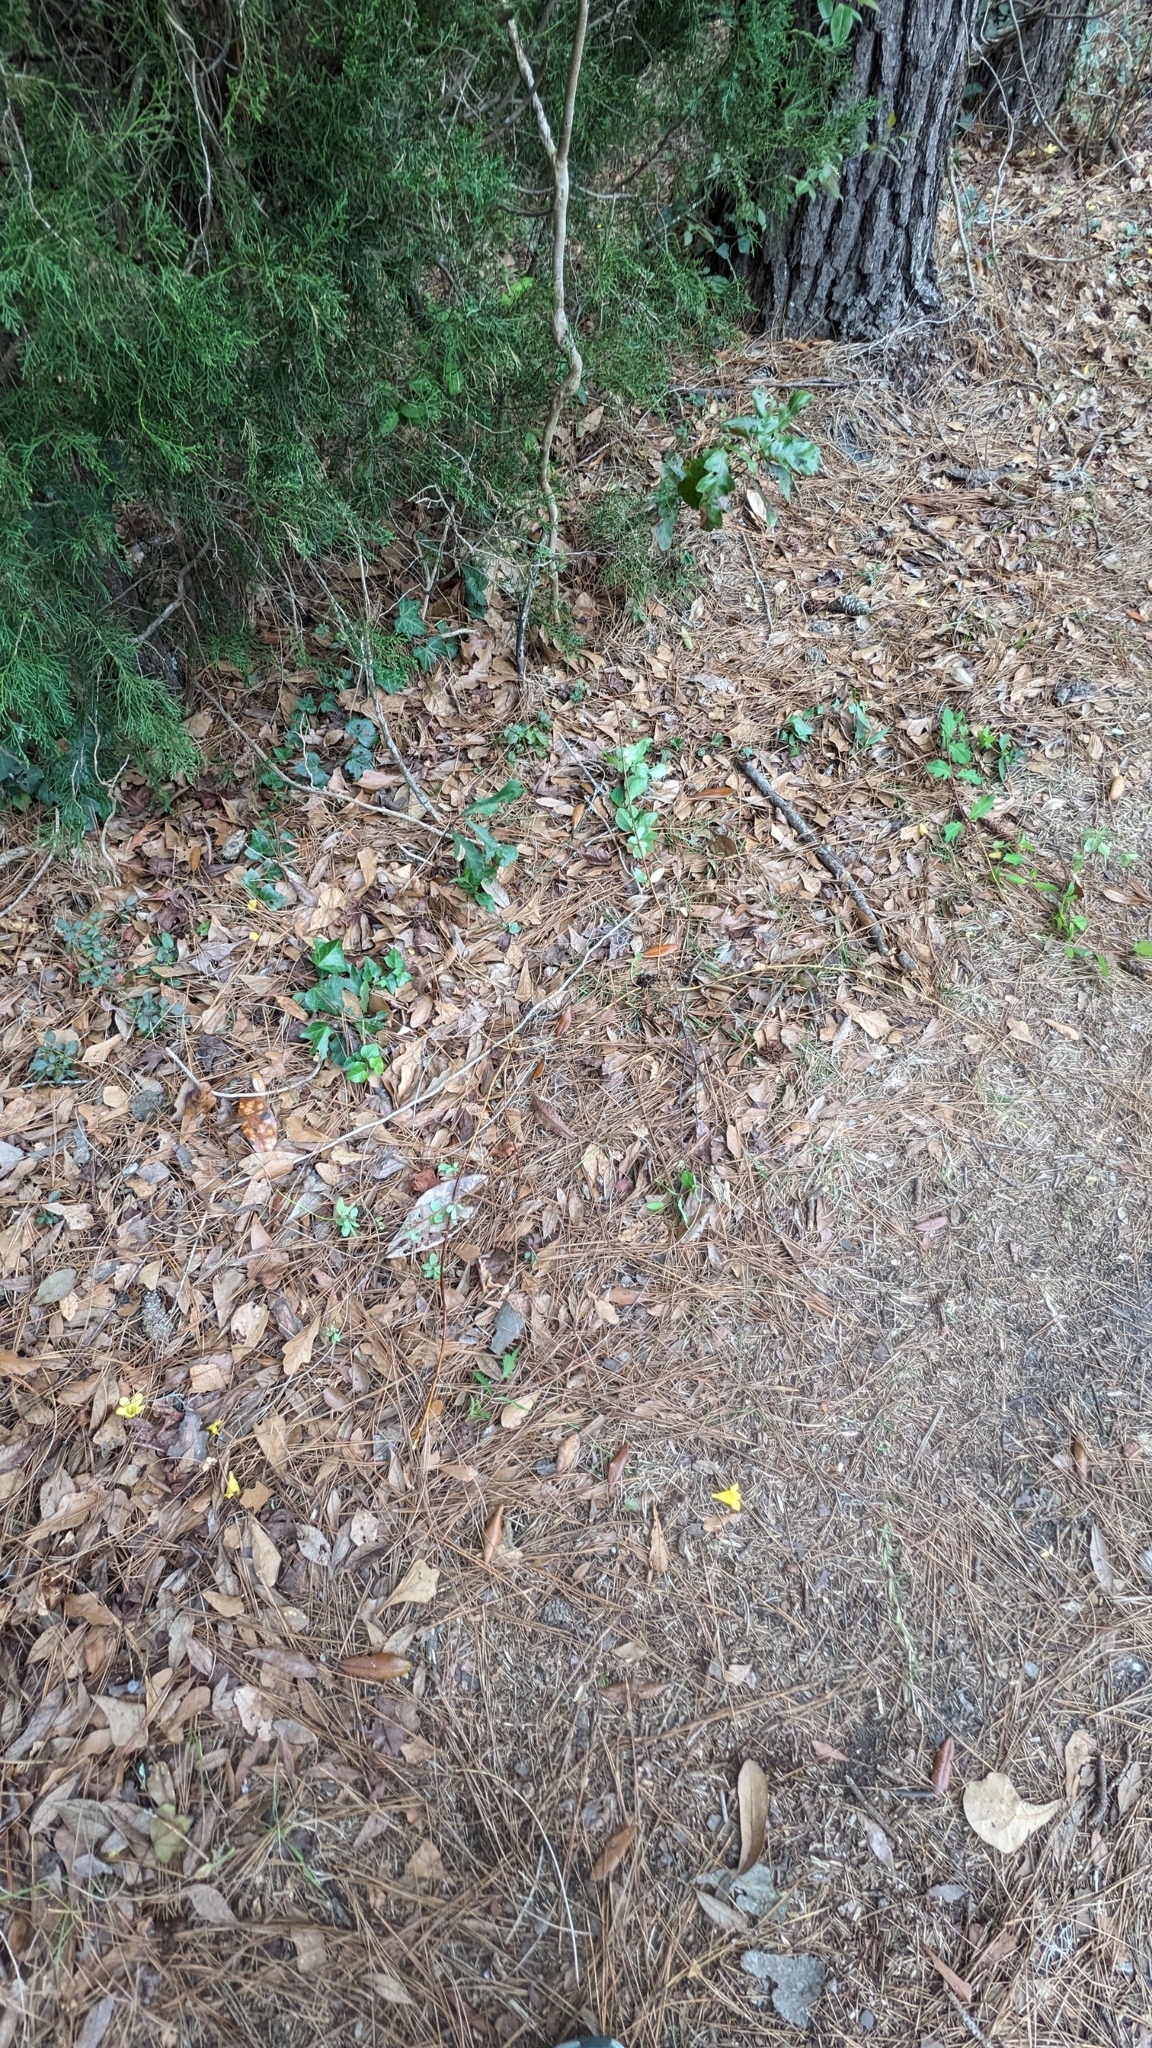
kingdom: Plantae
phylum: Tracheophyta
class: Magnoliopsida
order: Dipsacales
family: Caprifoliaceae
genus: Lonicera
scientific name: Lonicera japonica
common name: Japanese honeysuckle
